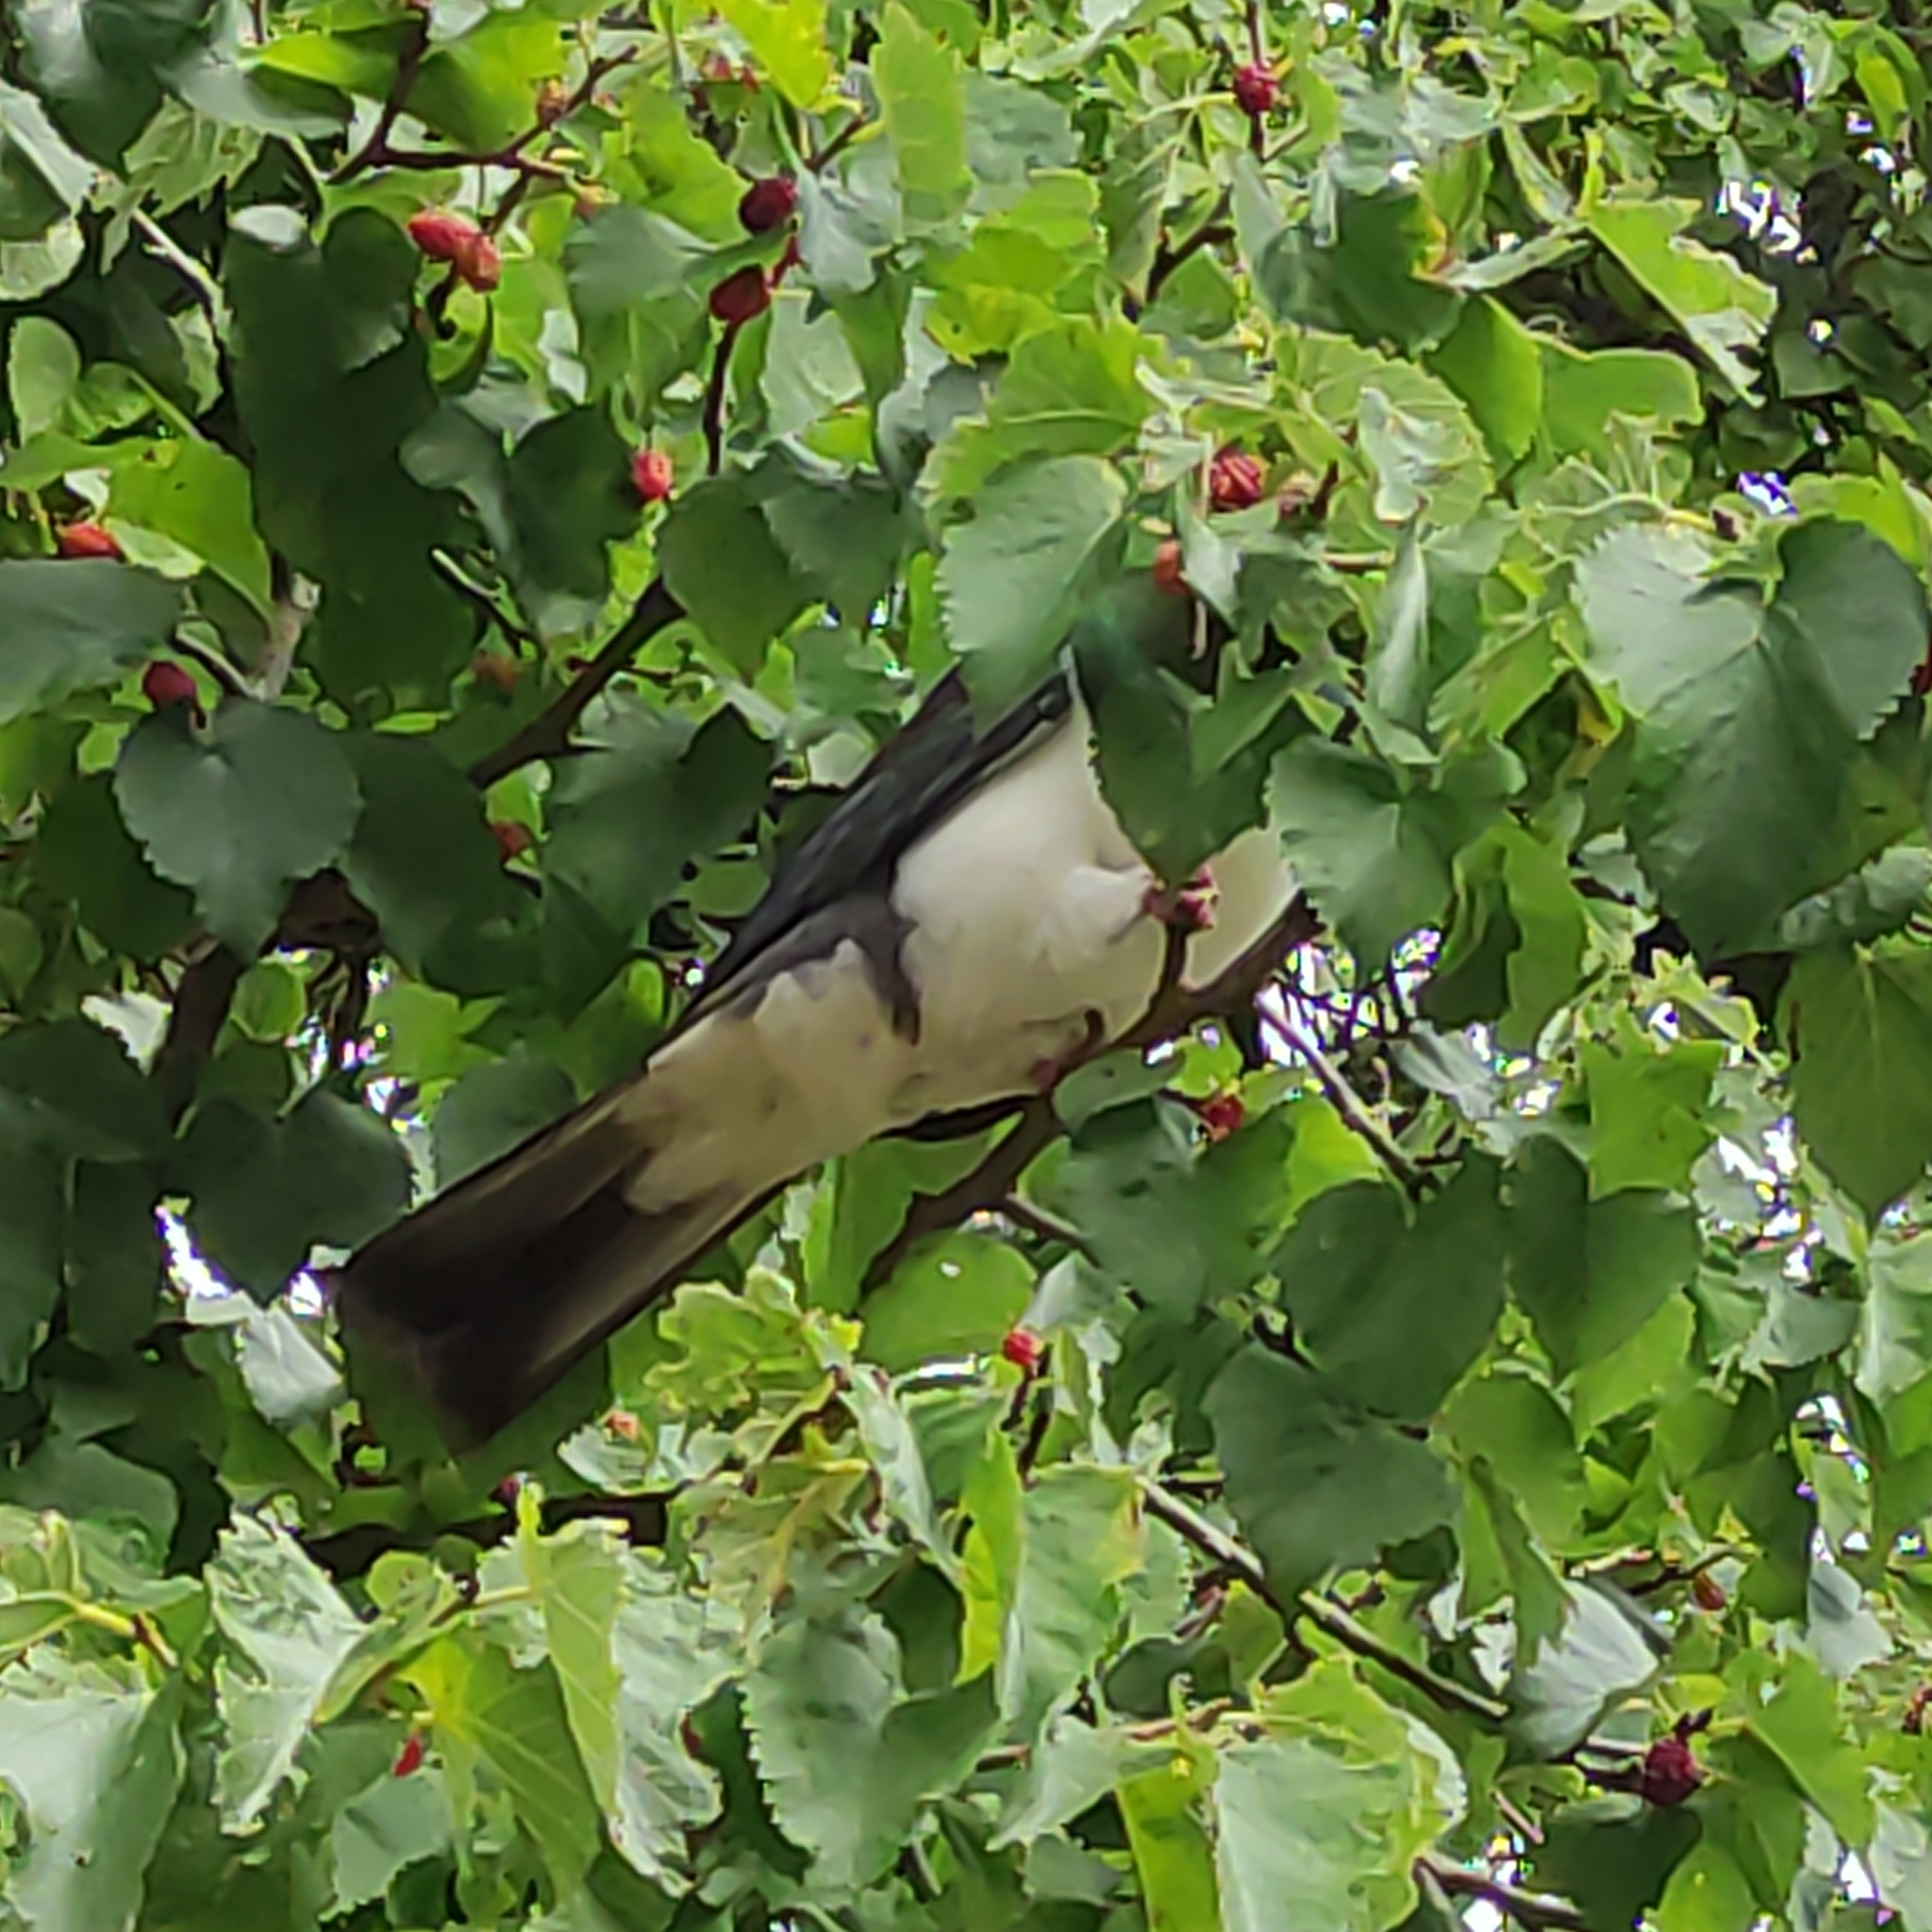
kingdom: Animalia
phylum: Chordata
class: Aves
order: Columbiformes
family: Columbidae
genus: Hemiphaga
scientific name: Hemiphaga novaeseelandiae
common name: New zealand pigeon
